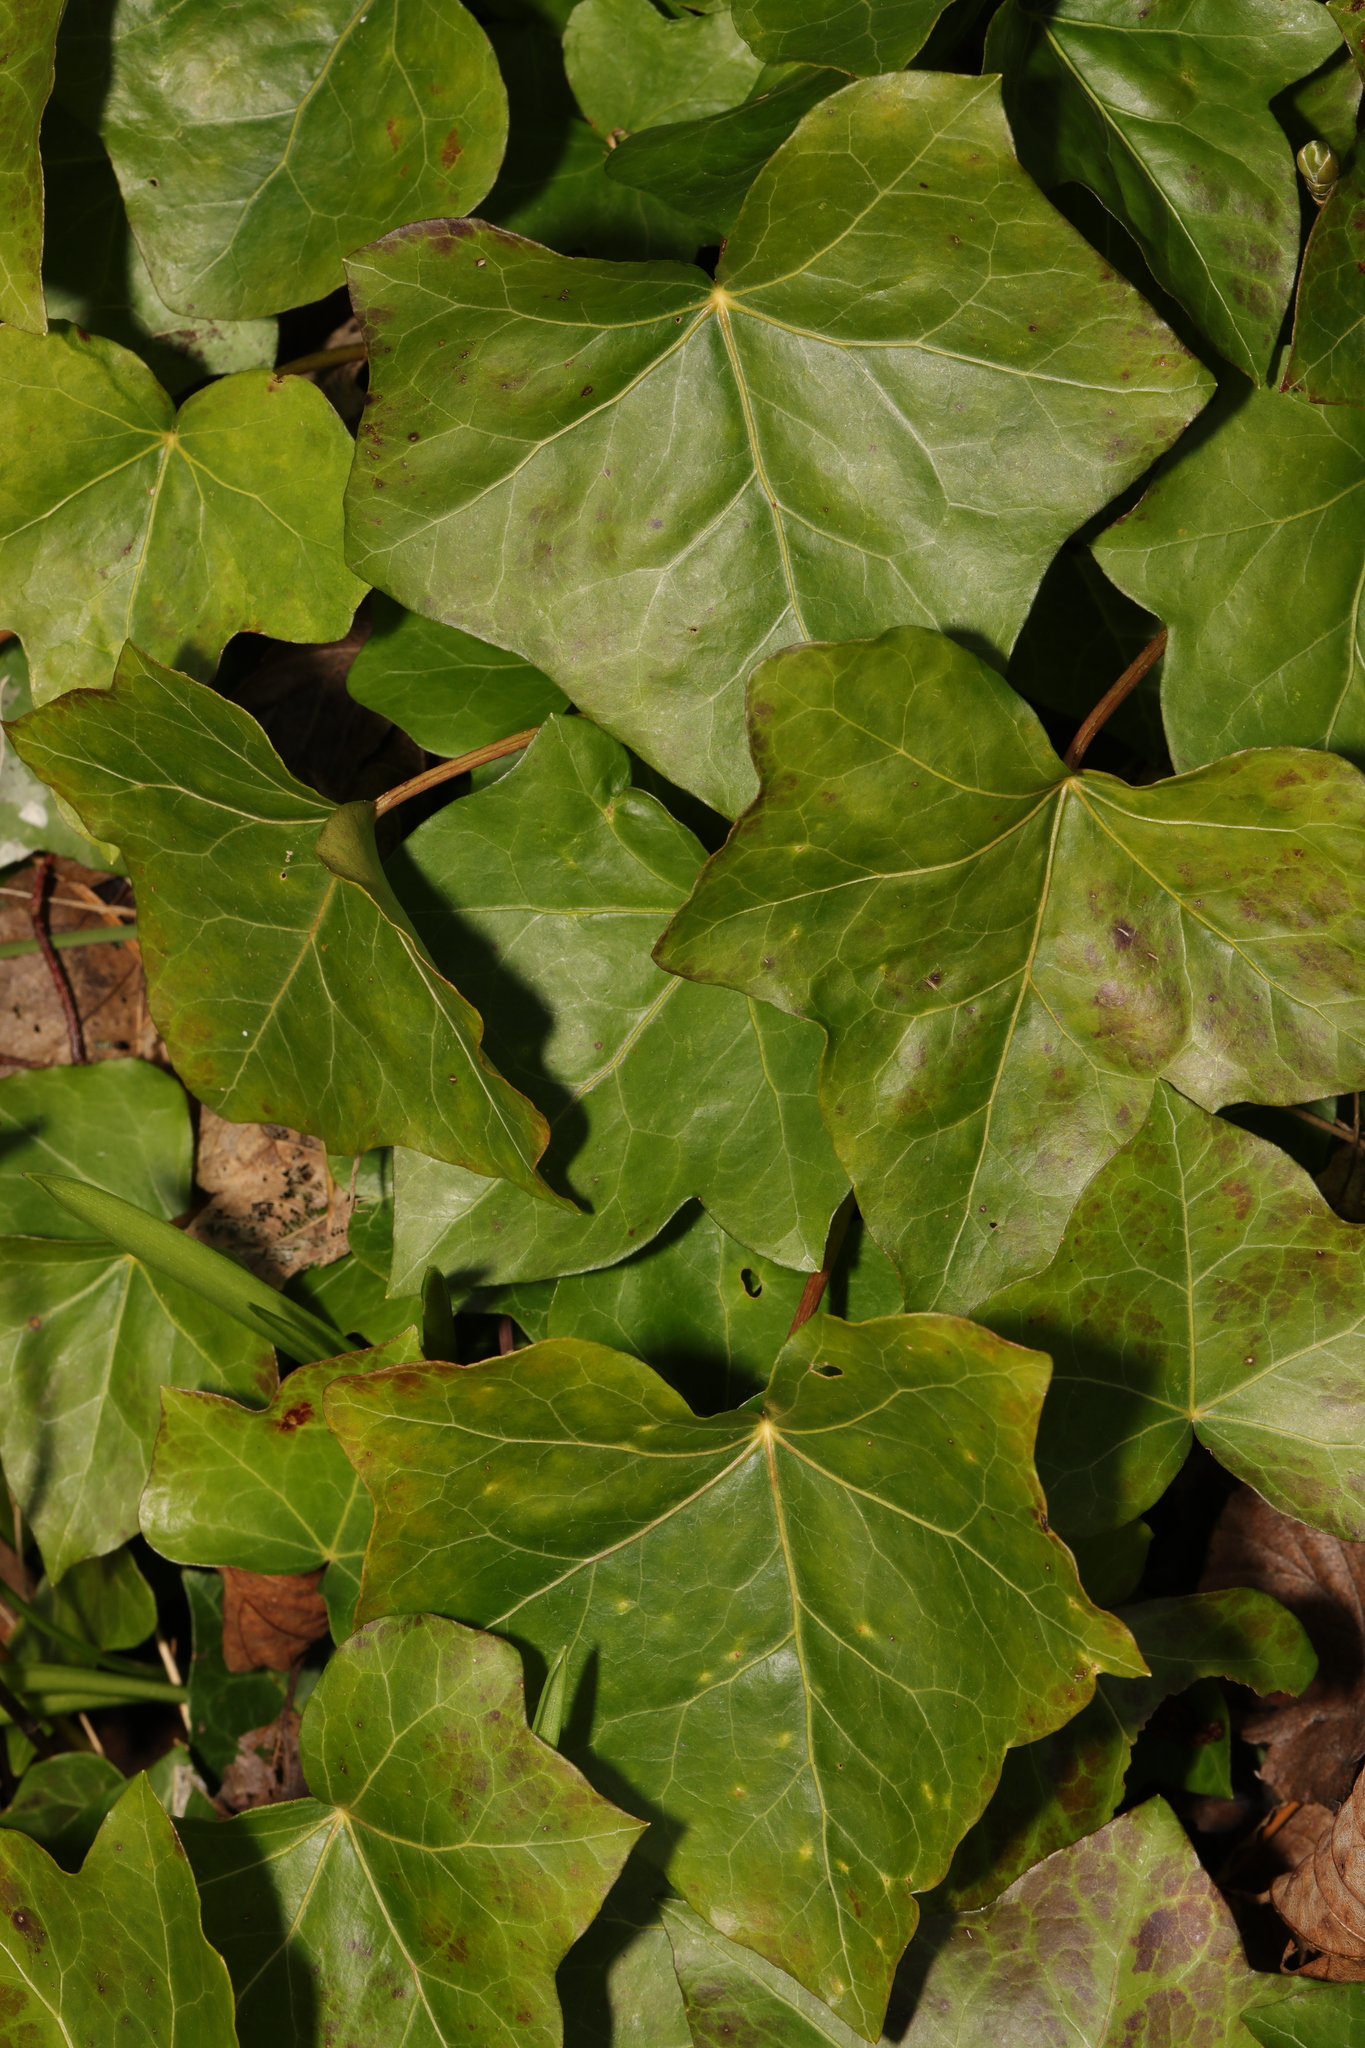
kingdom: Plantae
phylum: Tracheophyta
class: Magnoliopsida
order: Apiales
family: Araliaceae
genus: Hedera
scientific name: Hedera helix
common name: Ivy
